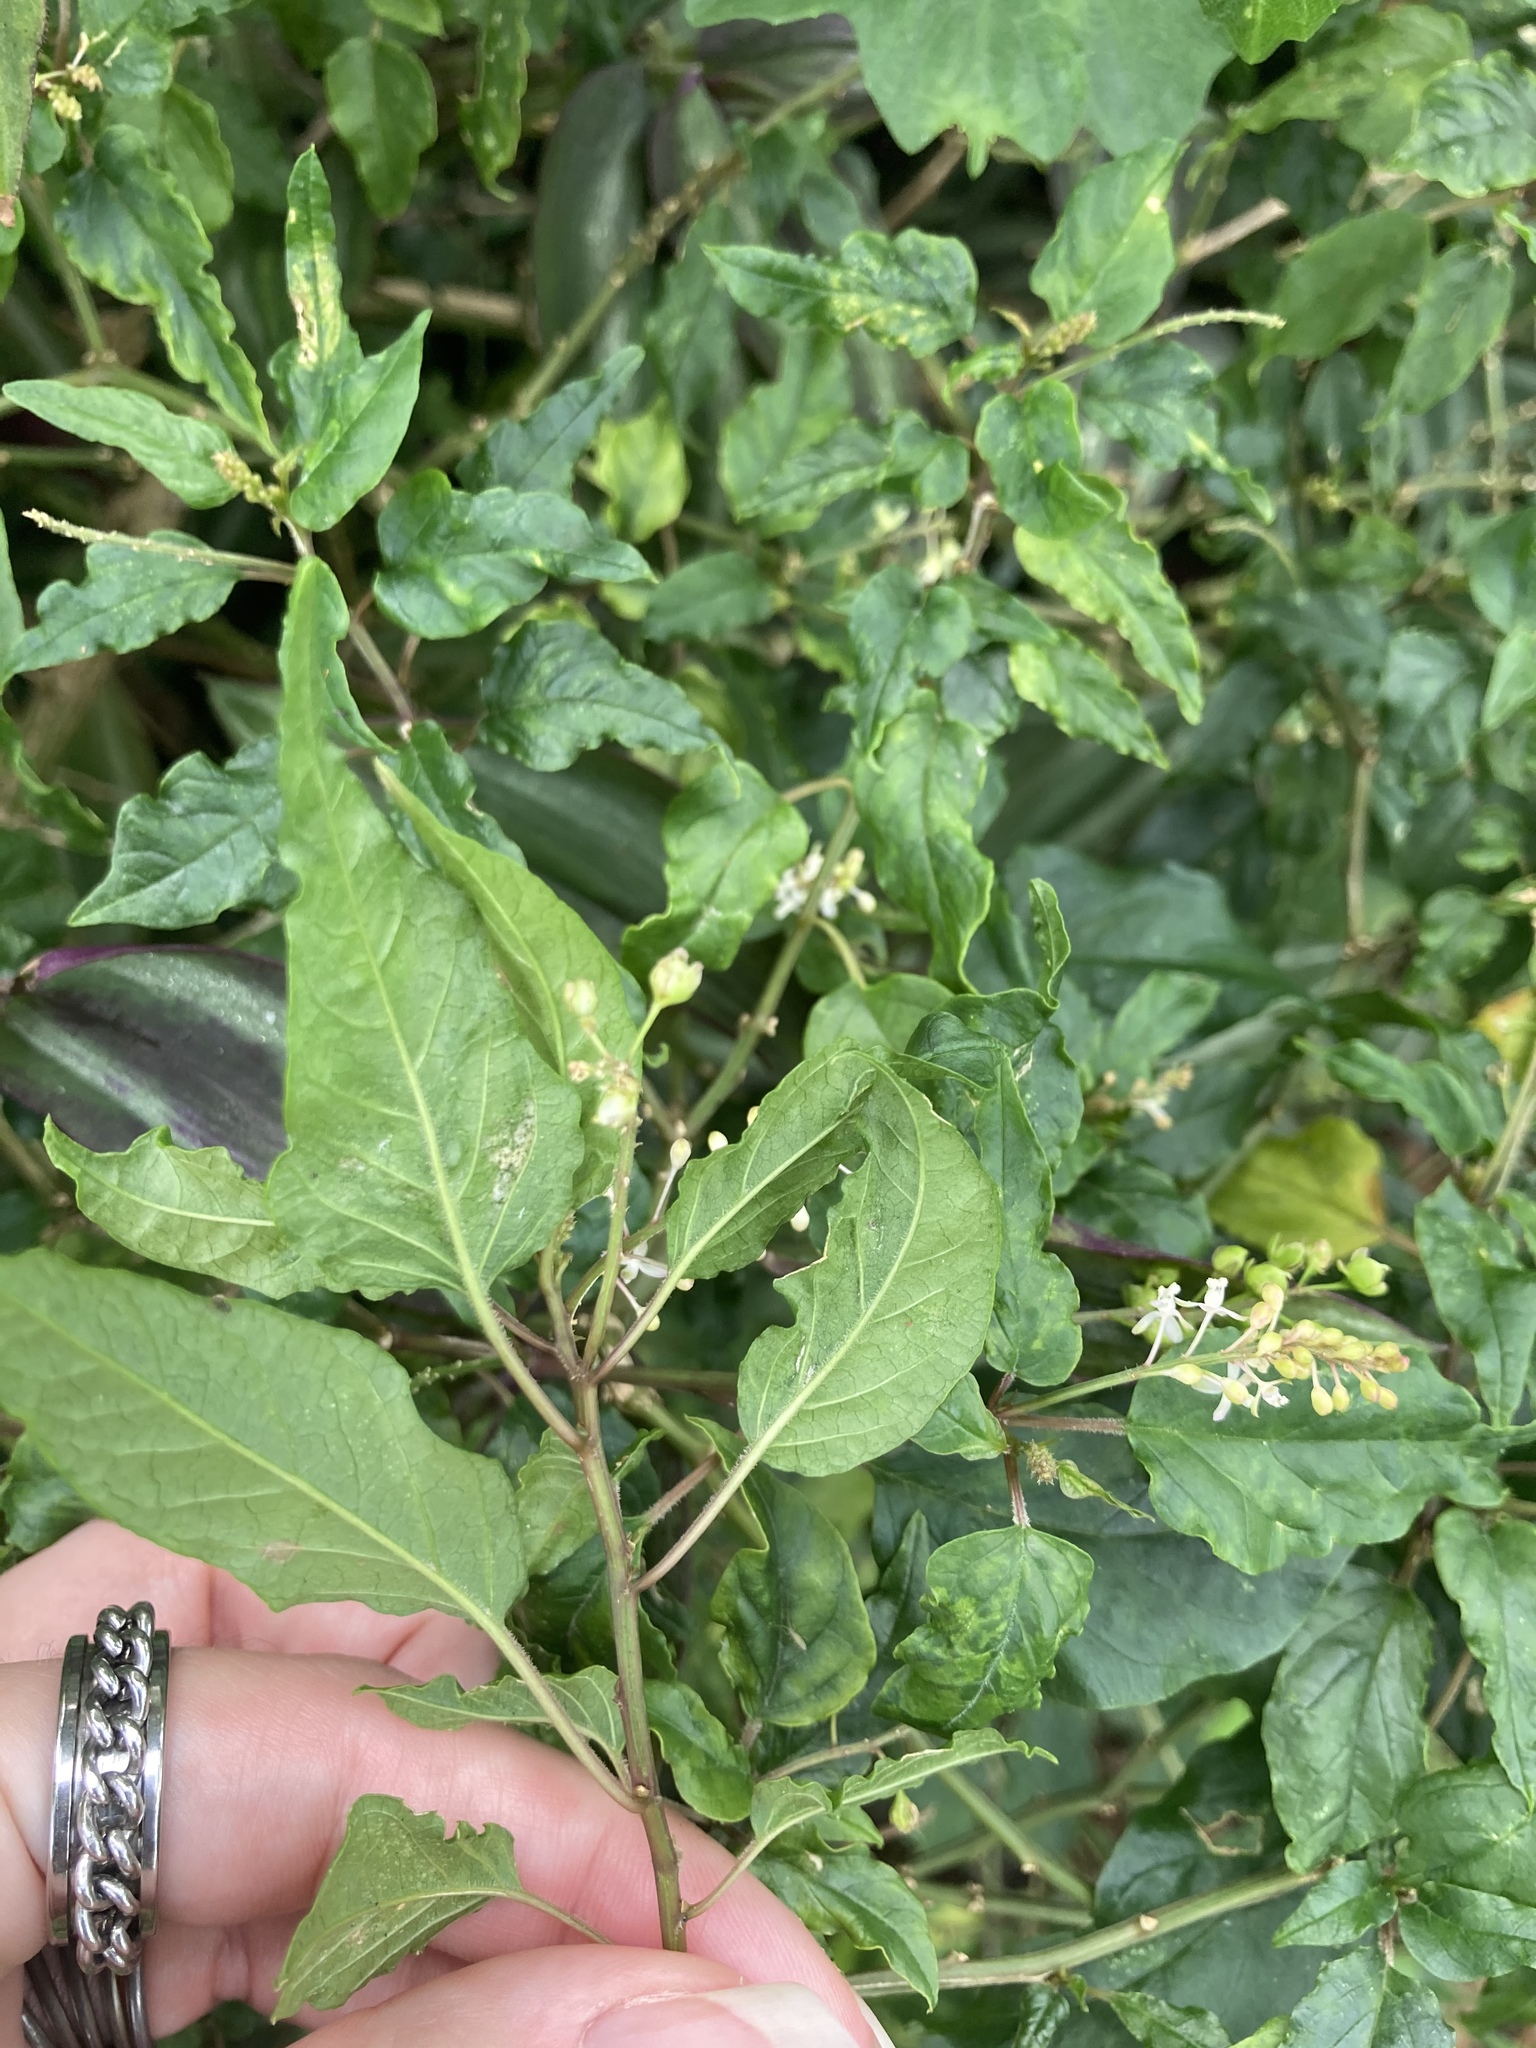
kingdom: Plantae
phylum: Tracheophyta
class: Magnoliopsida
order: Caryophyllales
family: Phytolaccaceae
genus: Rivina
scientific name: Rivina humilis
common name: Rougeplant
